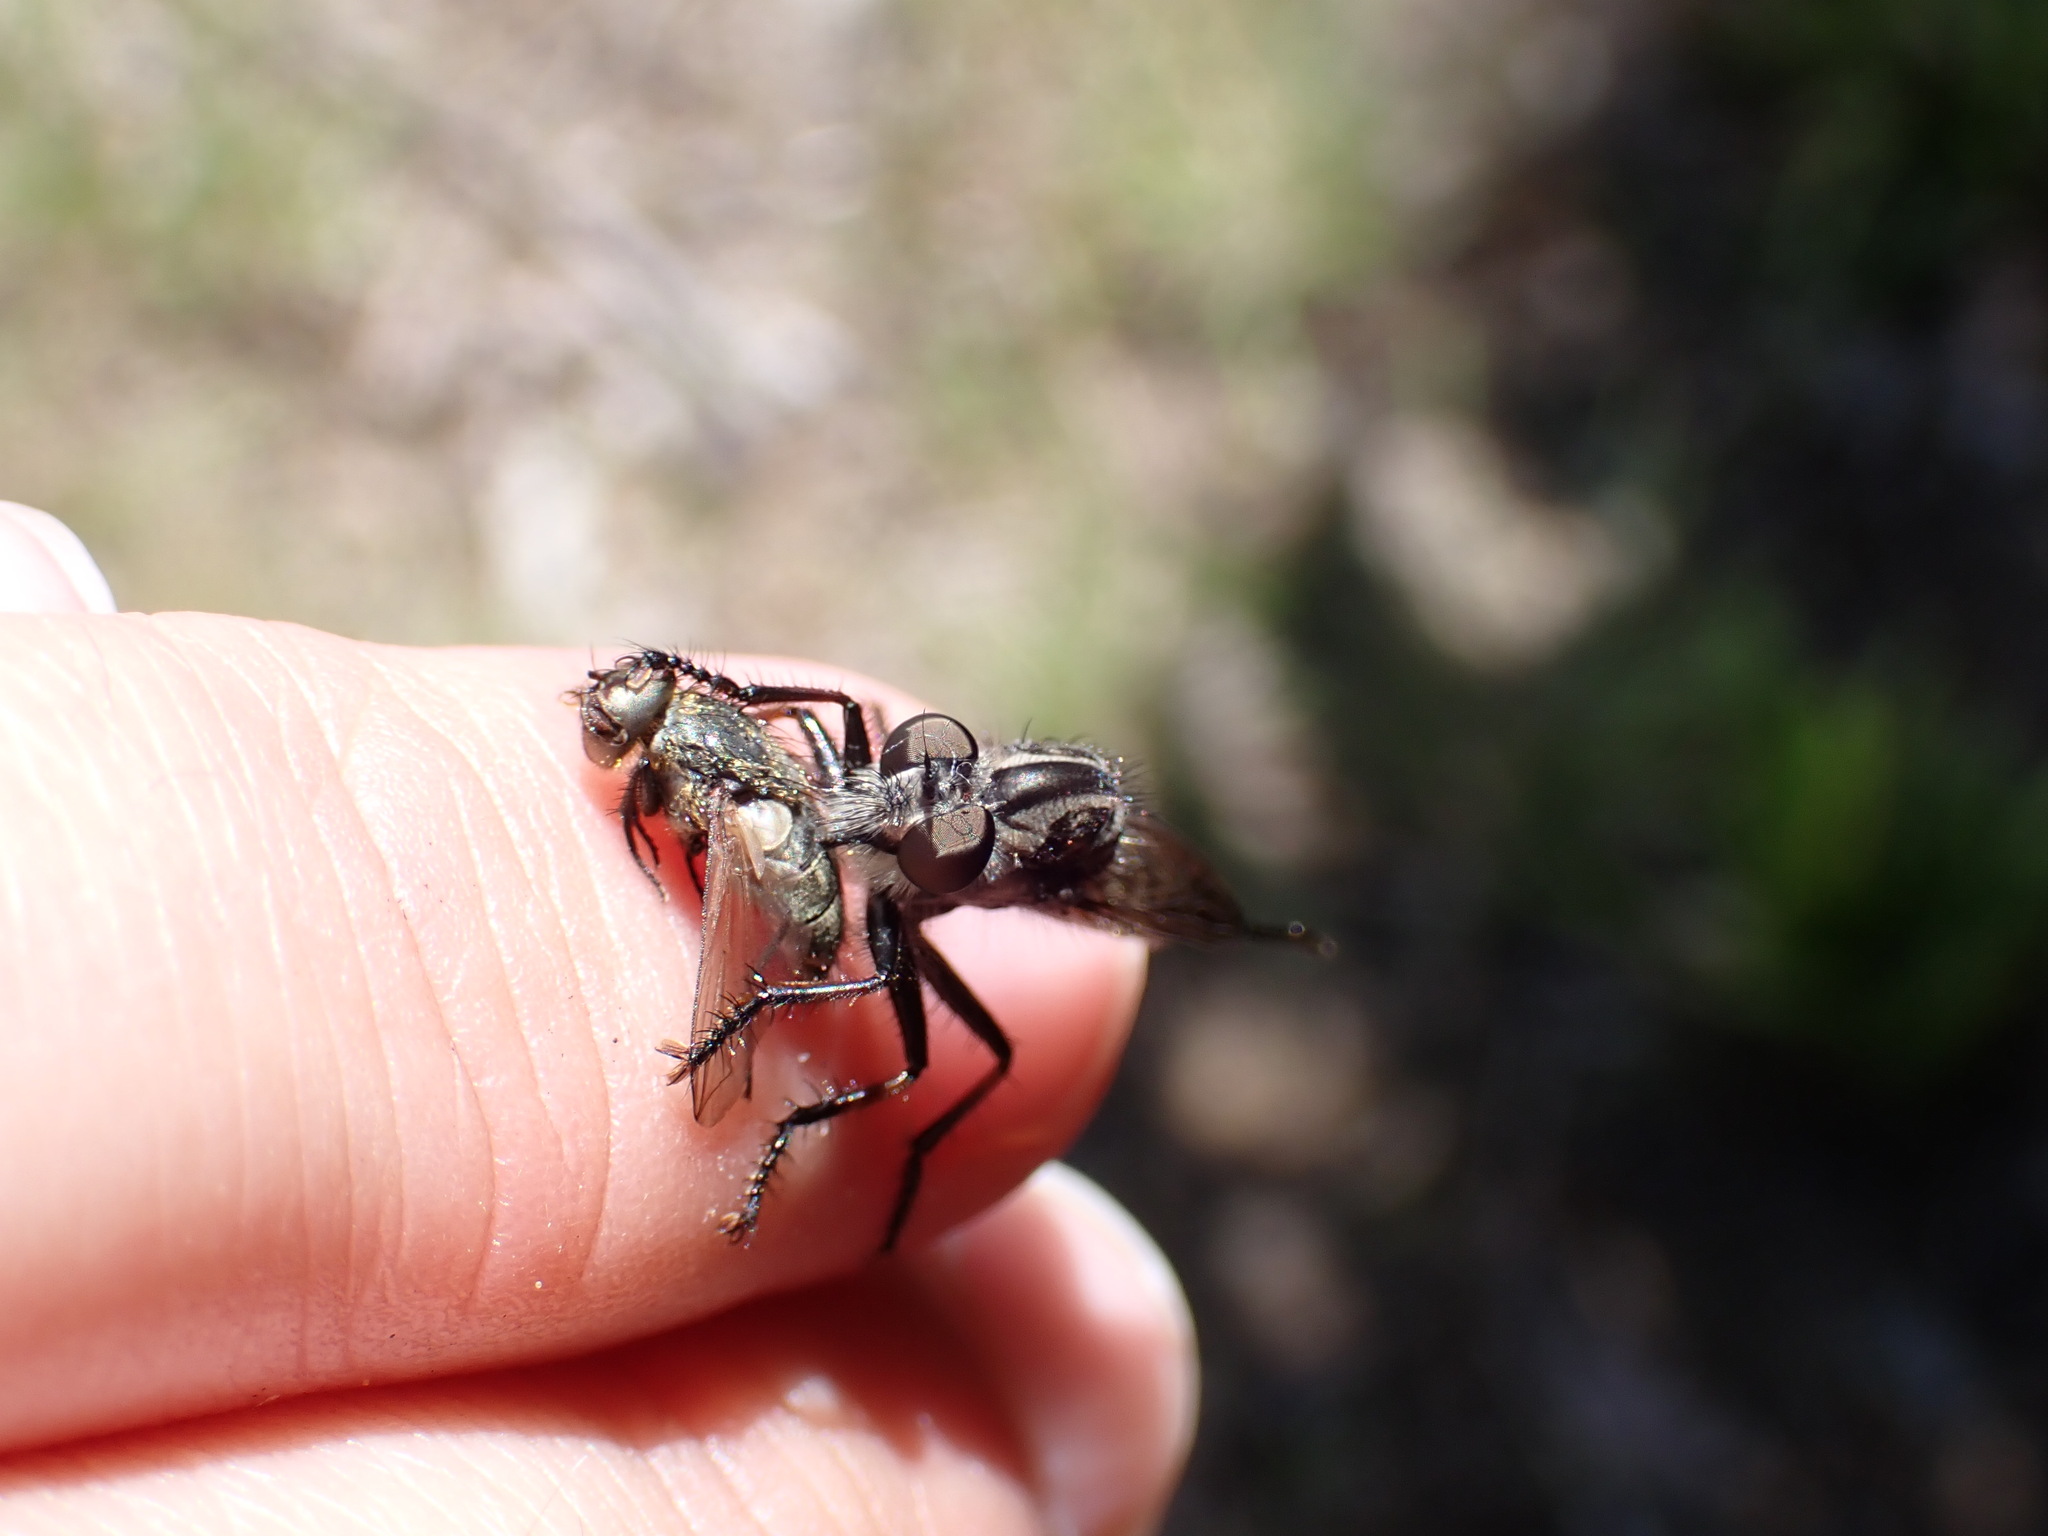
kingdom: Animalia
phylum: Arthropoda
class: Insecta
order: Diptera
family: Asilidae
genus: Efferia
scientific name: Efferia
